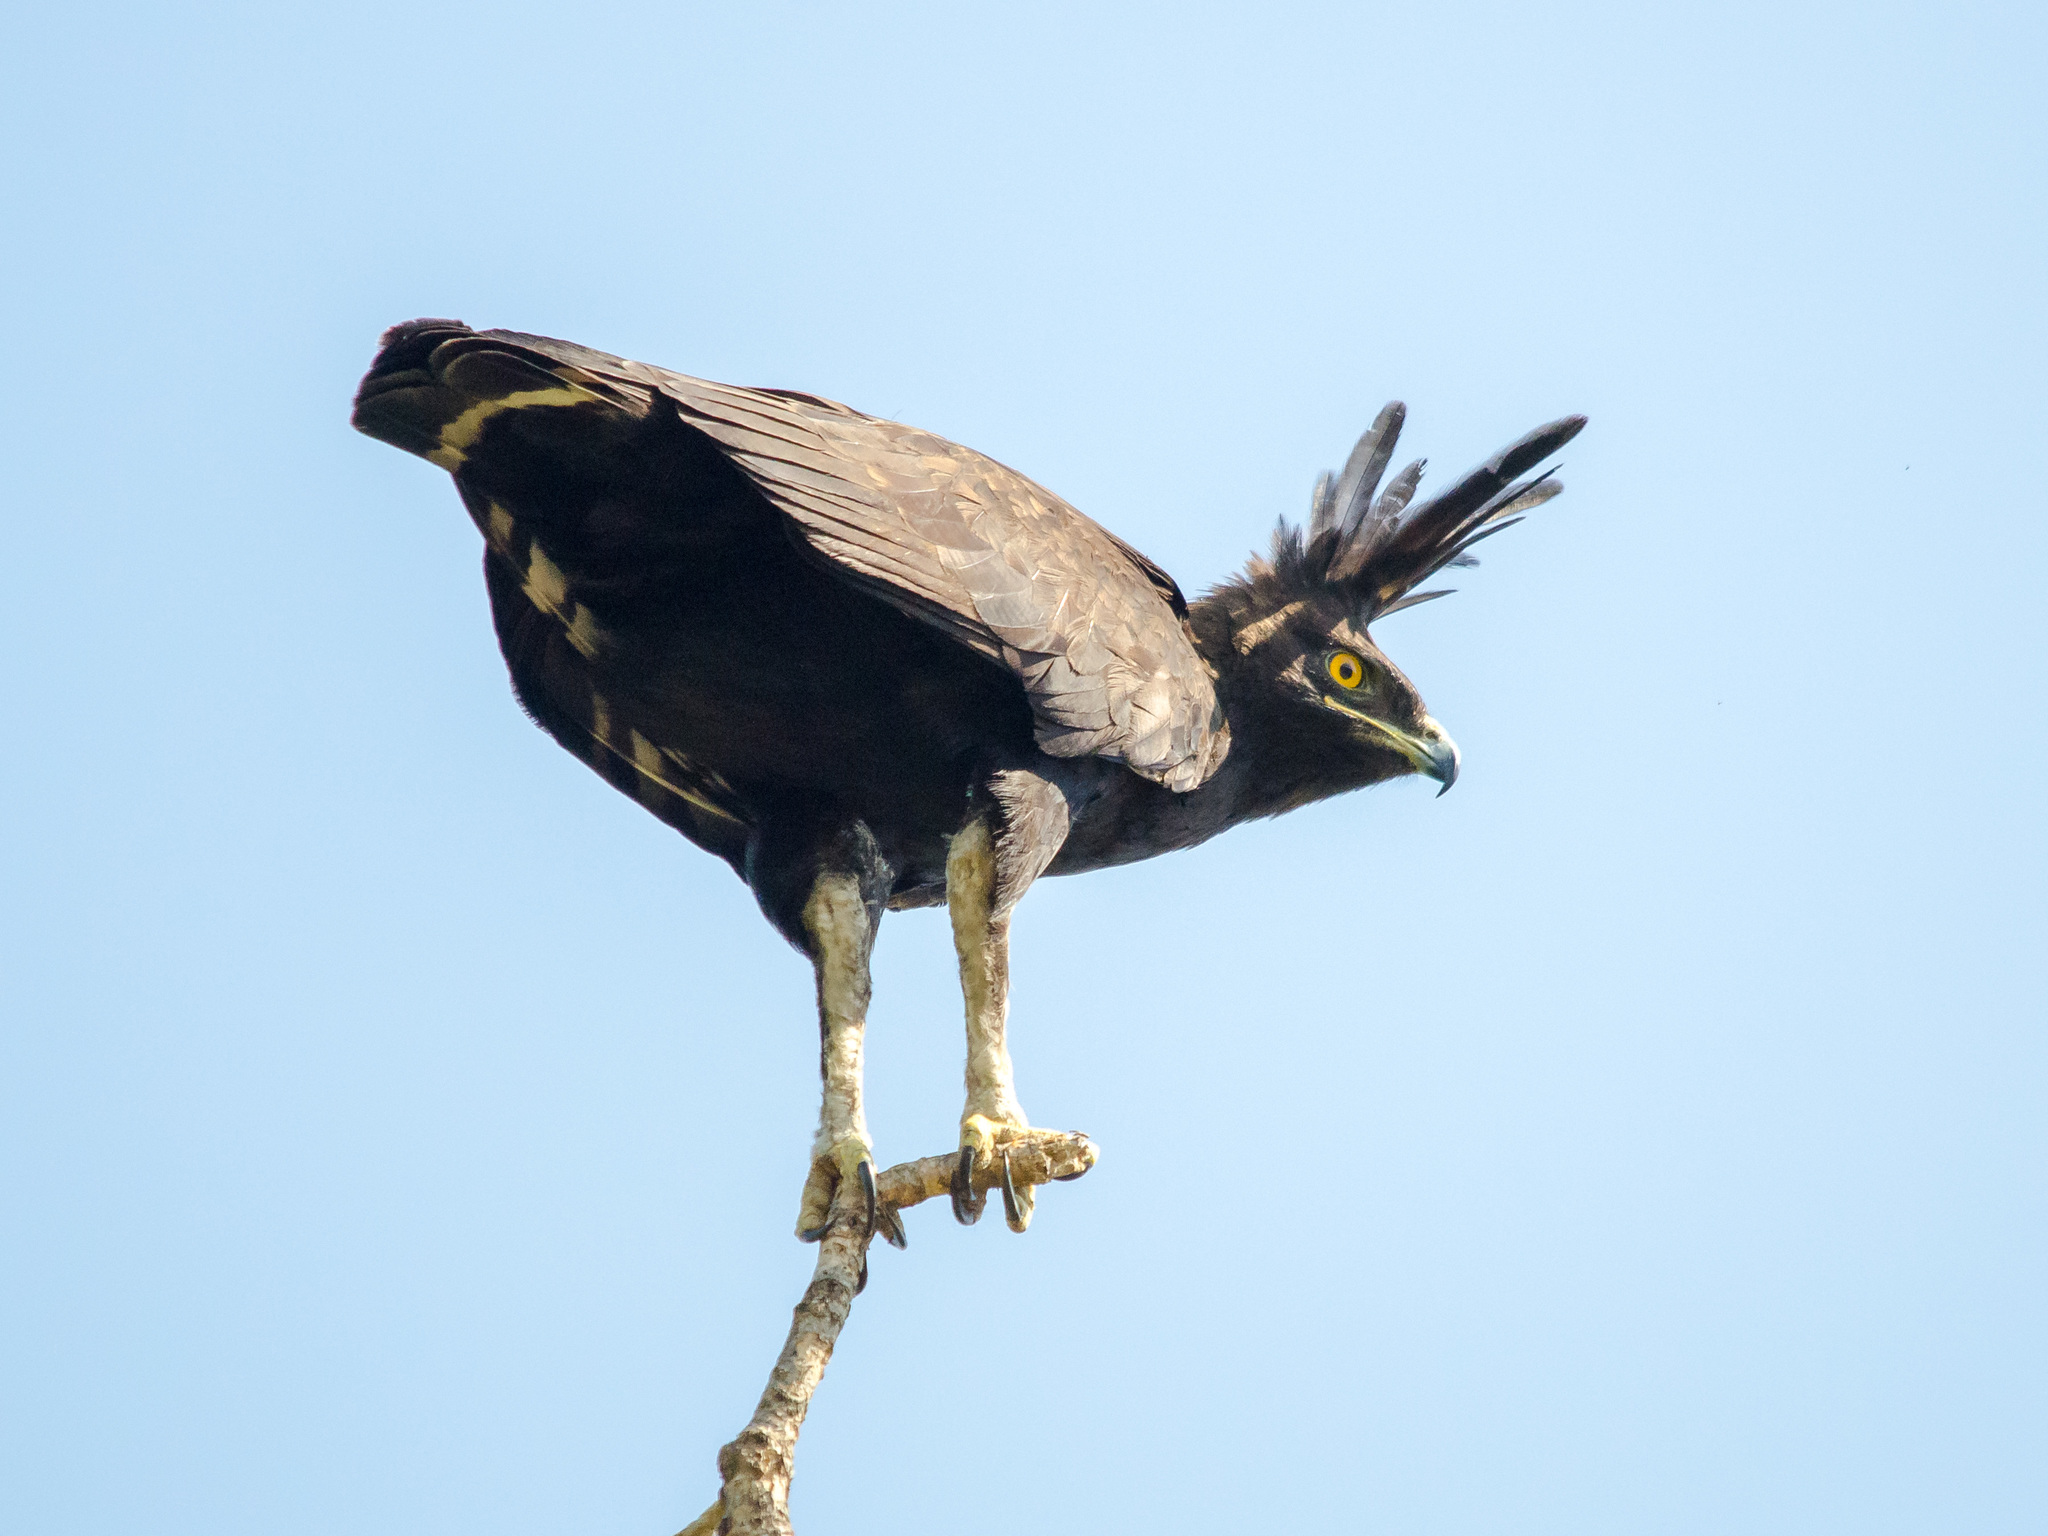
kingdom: Animalia
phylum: Chordata
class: Aves
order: Accipitriformes
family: Accipitridae
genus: Lophaetus
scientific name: Lophaetus occipitalis
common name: Long-crested eagle
